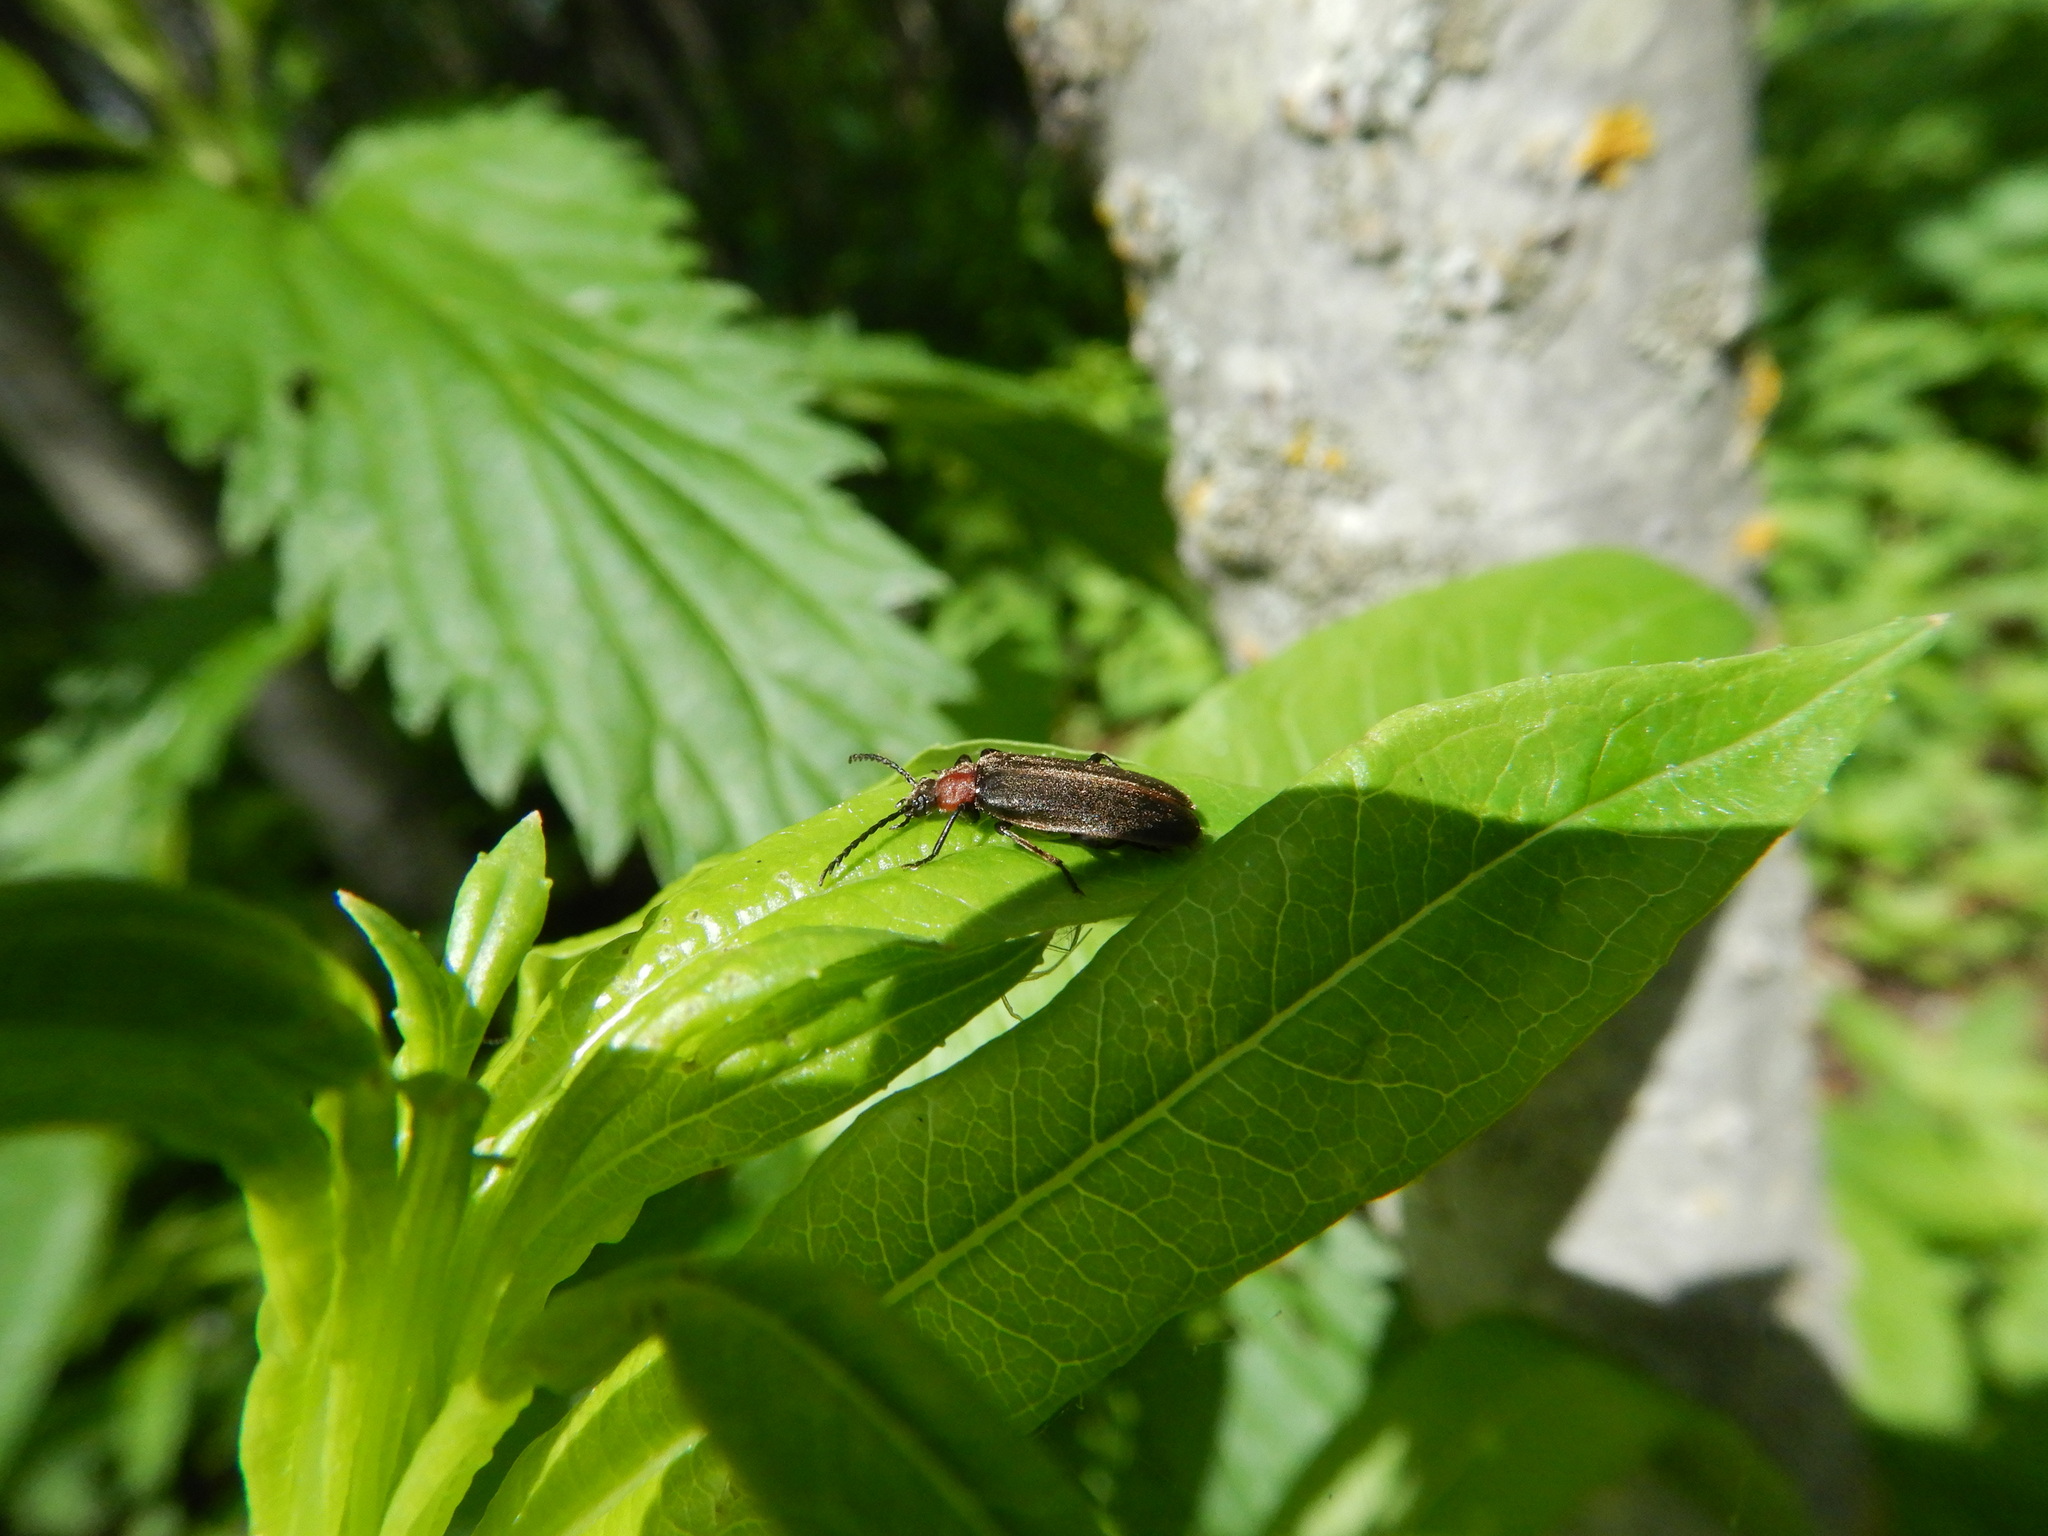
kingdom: Animalia
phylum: Arthropoda
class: Insecta
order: Coleoptera
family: Pyrochroidae
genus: Schizotus
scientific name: Schizotus cervicalis
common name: Flaming-pillow beetle
